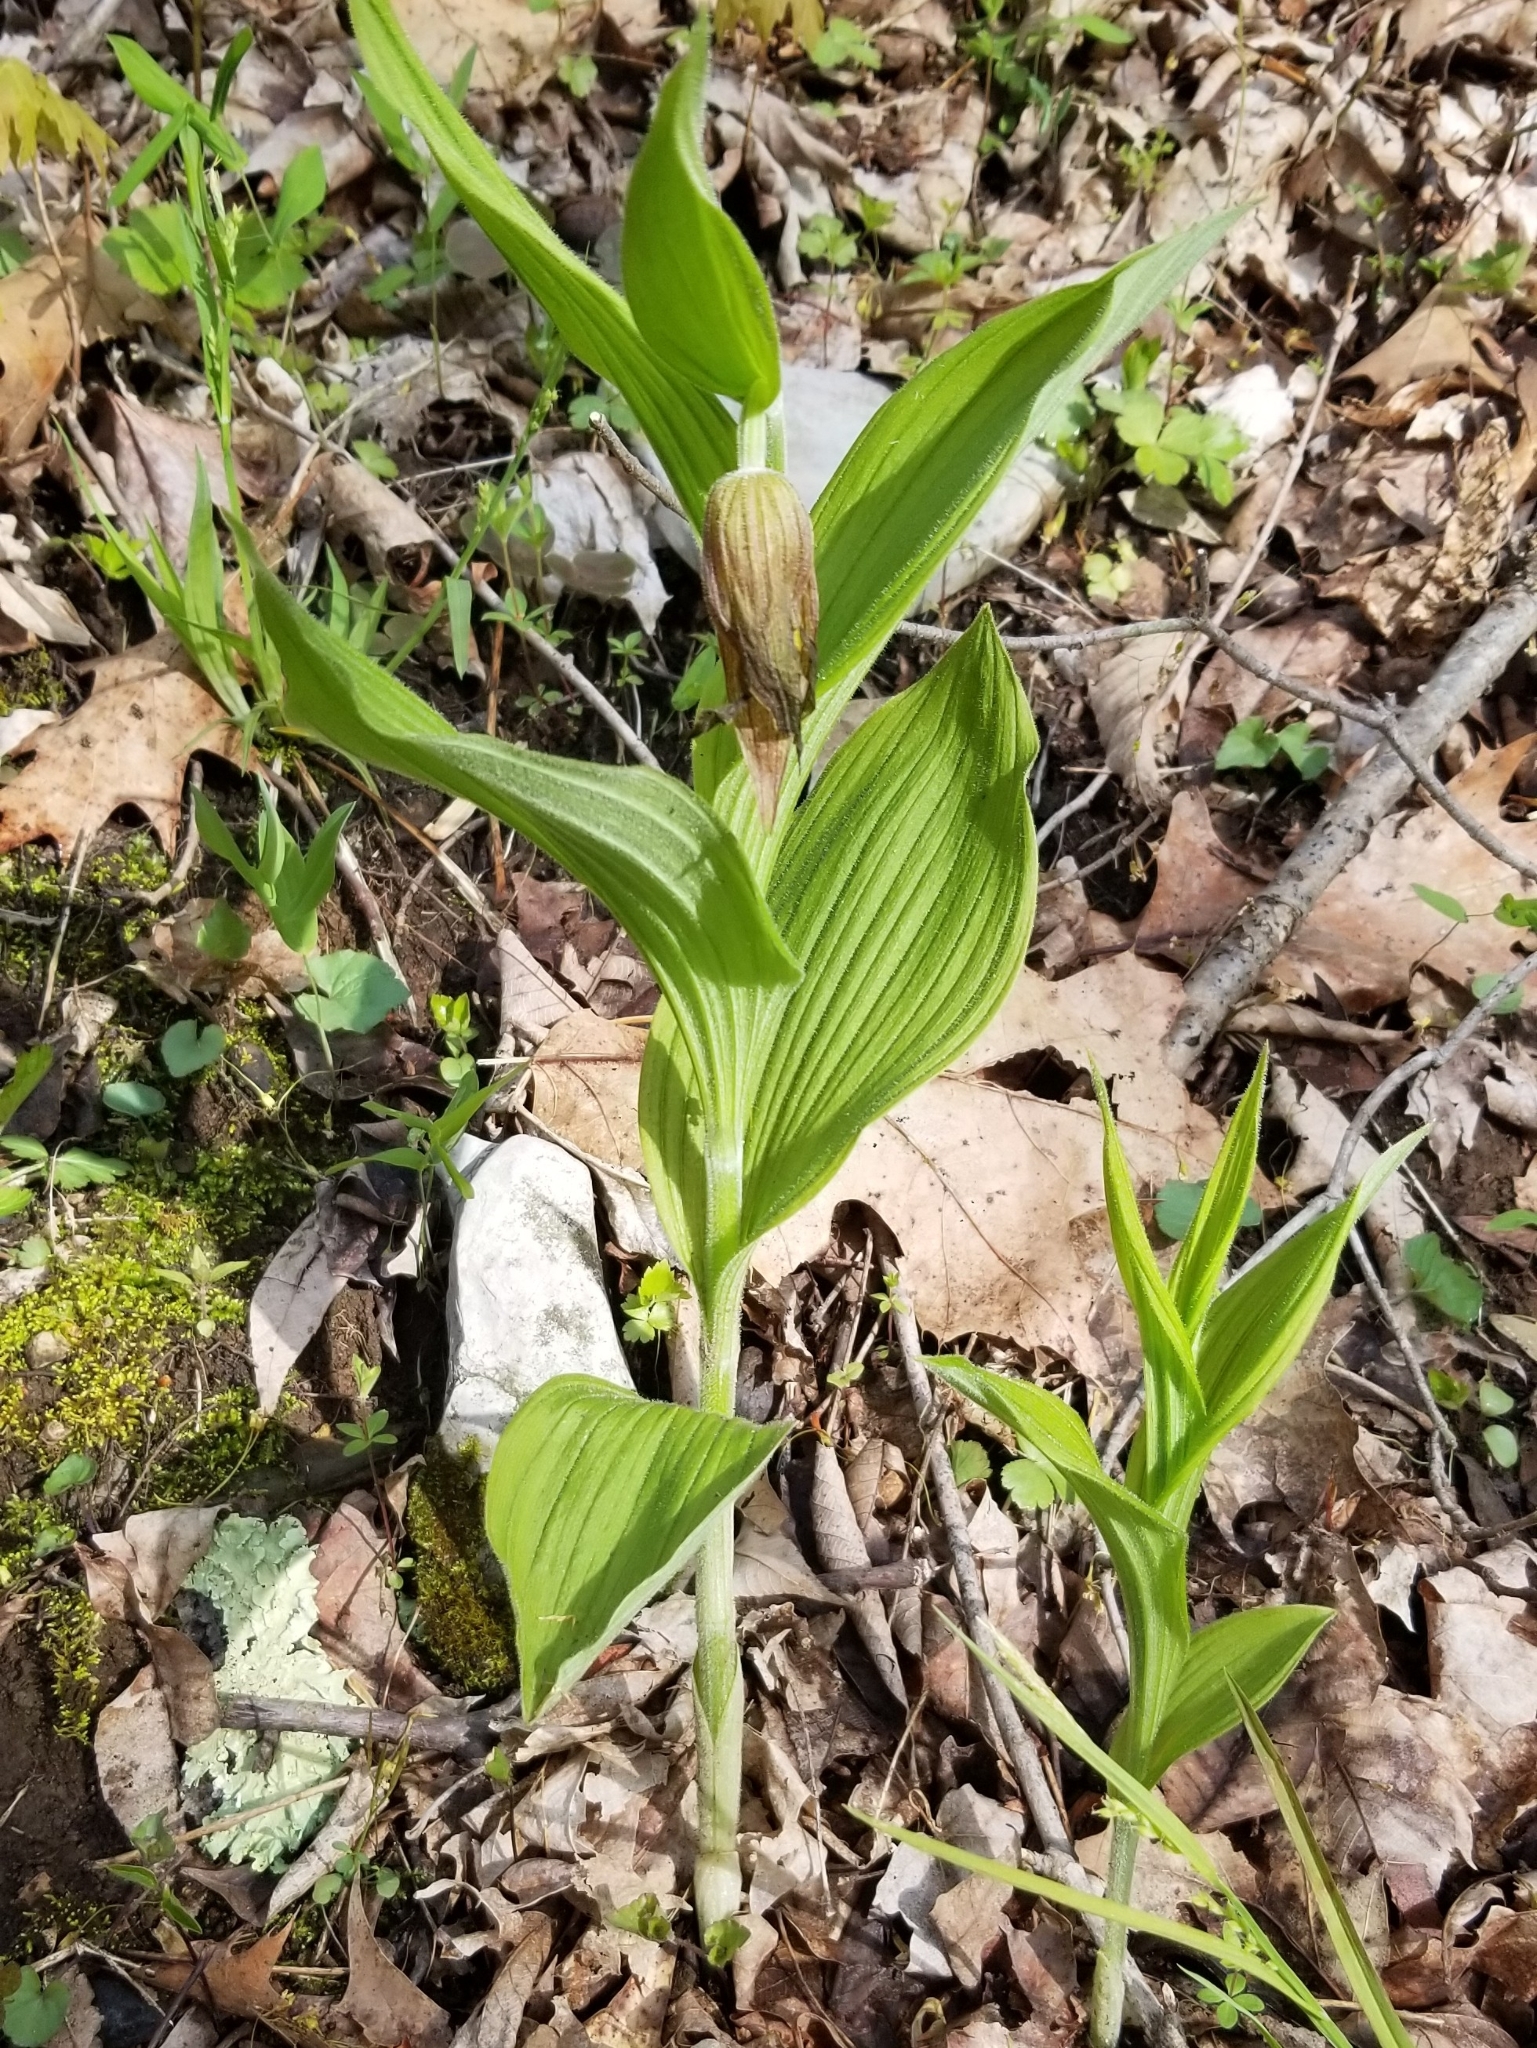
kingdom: Plantae
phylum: Tracheophyta
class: Liliopsida
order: Asparagales
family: Orchidaceae
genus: Cypripedium
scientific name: Cypripedium parviflorum
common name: American yellow lady's-slipper
